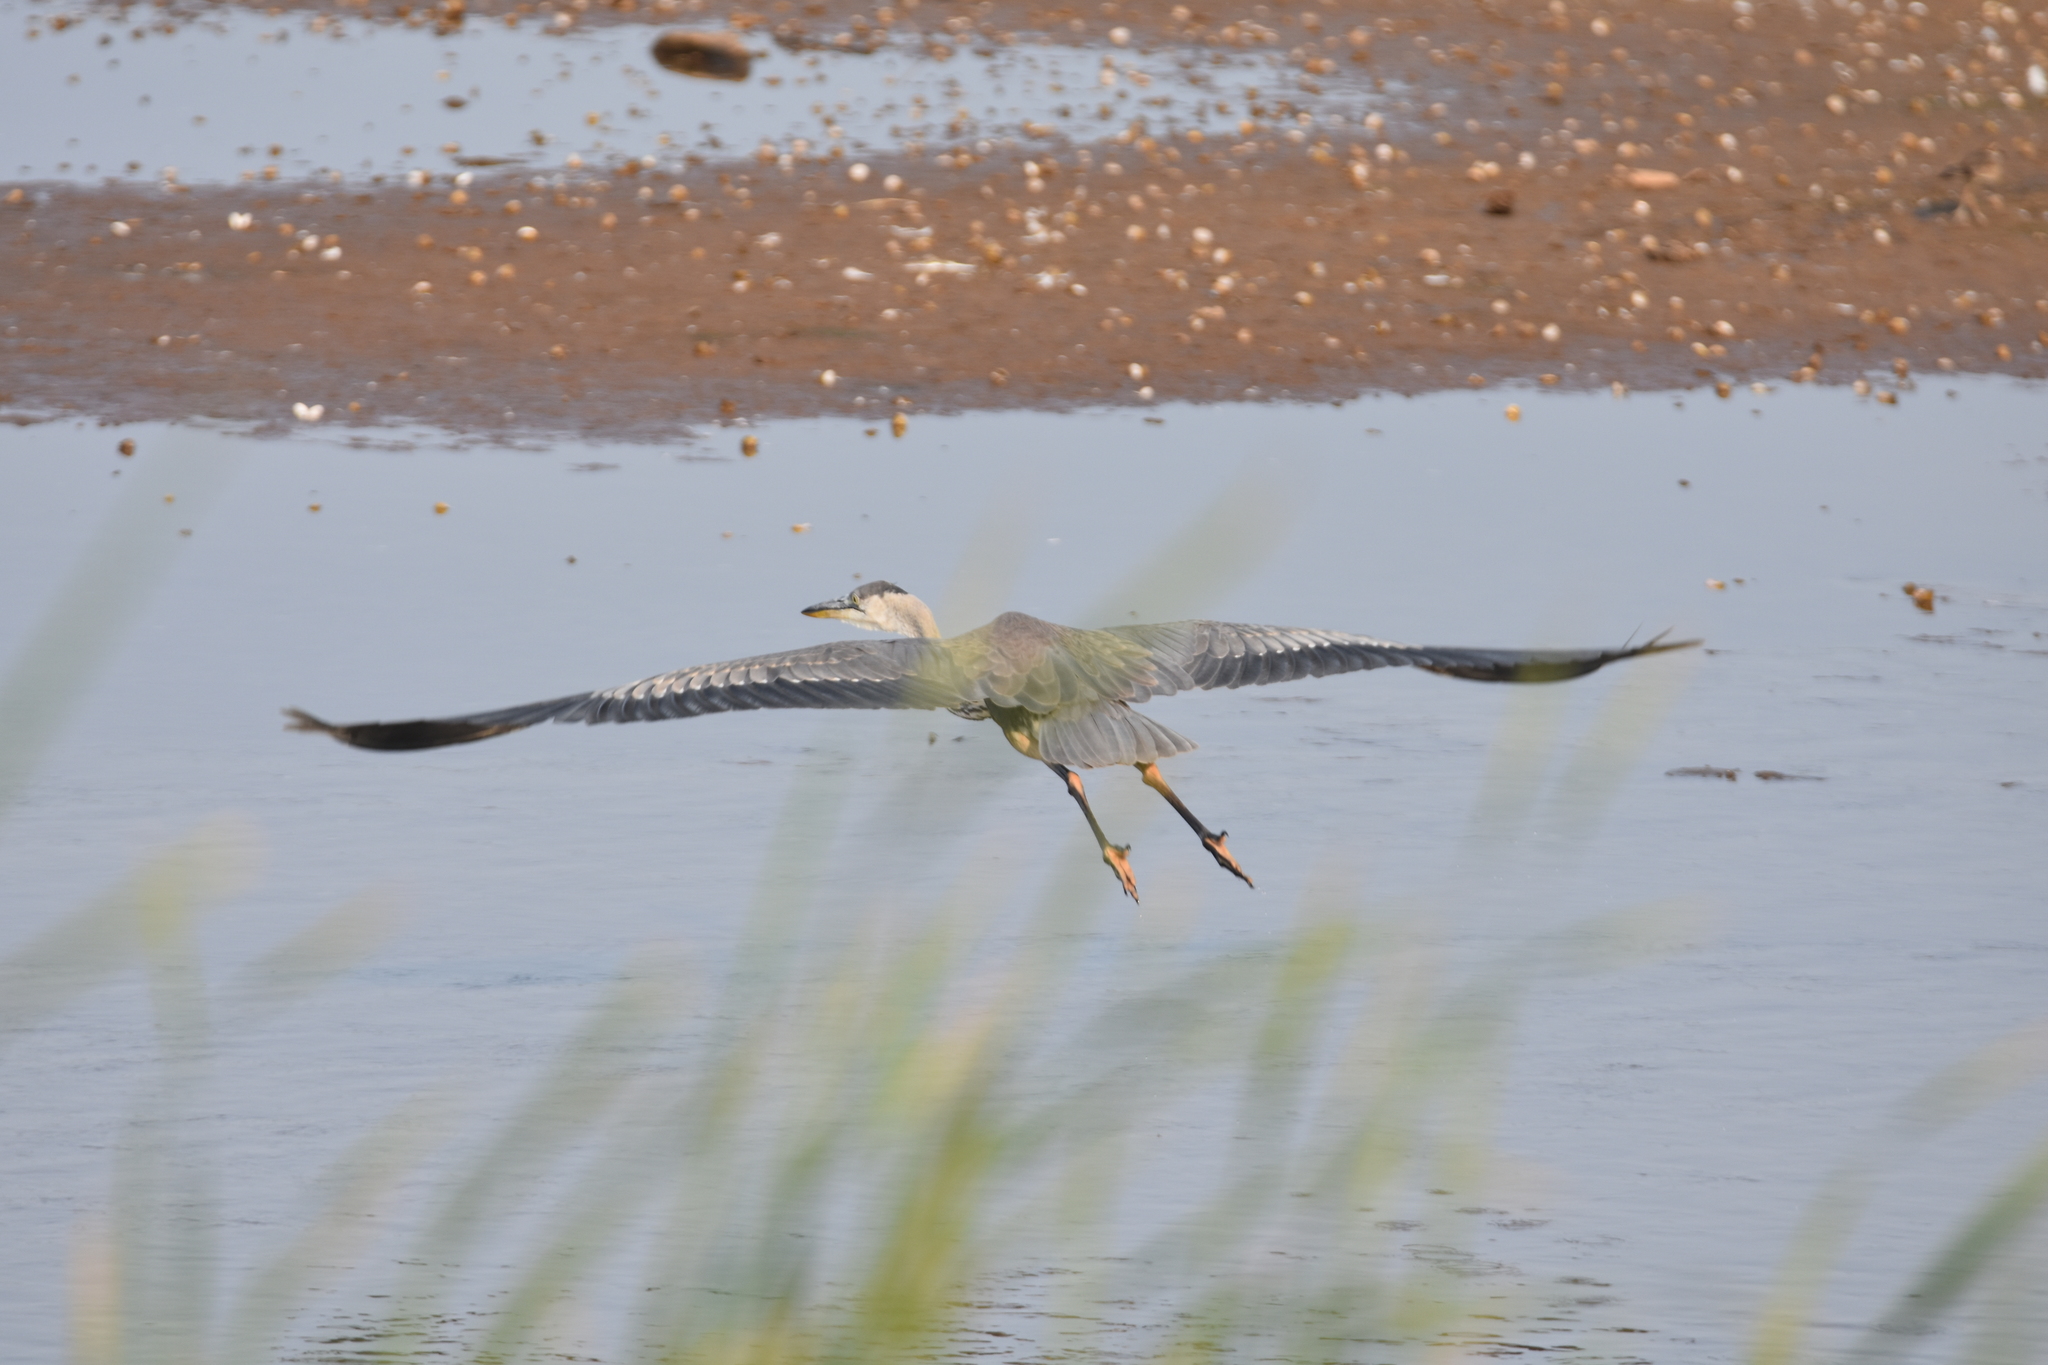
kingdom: Animalia
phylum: Chordata
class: Aves
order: Pelecaniformes
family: Ardeidae
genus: Ardea
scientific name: Ardea herodias
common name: Great blue heron
